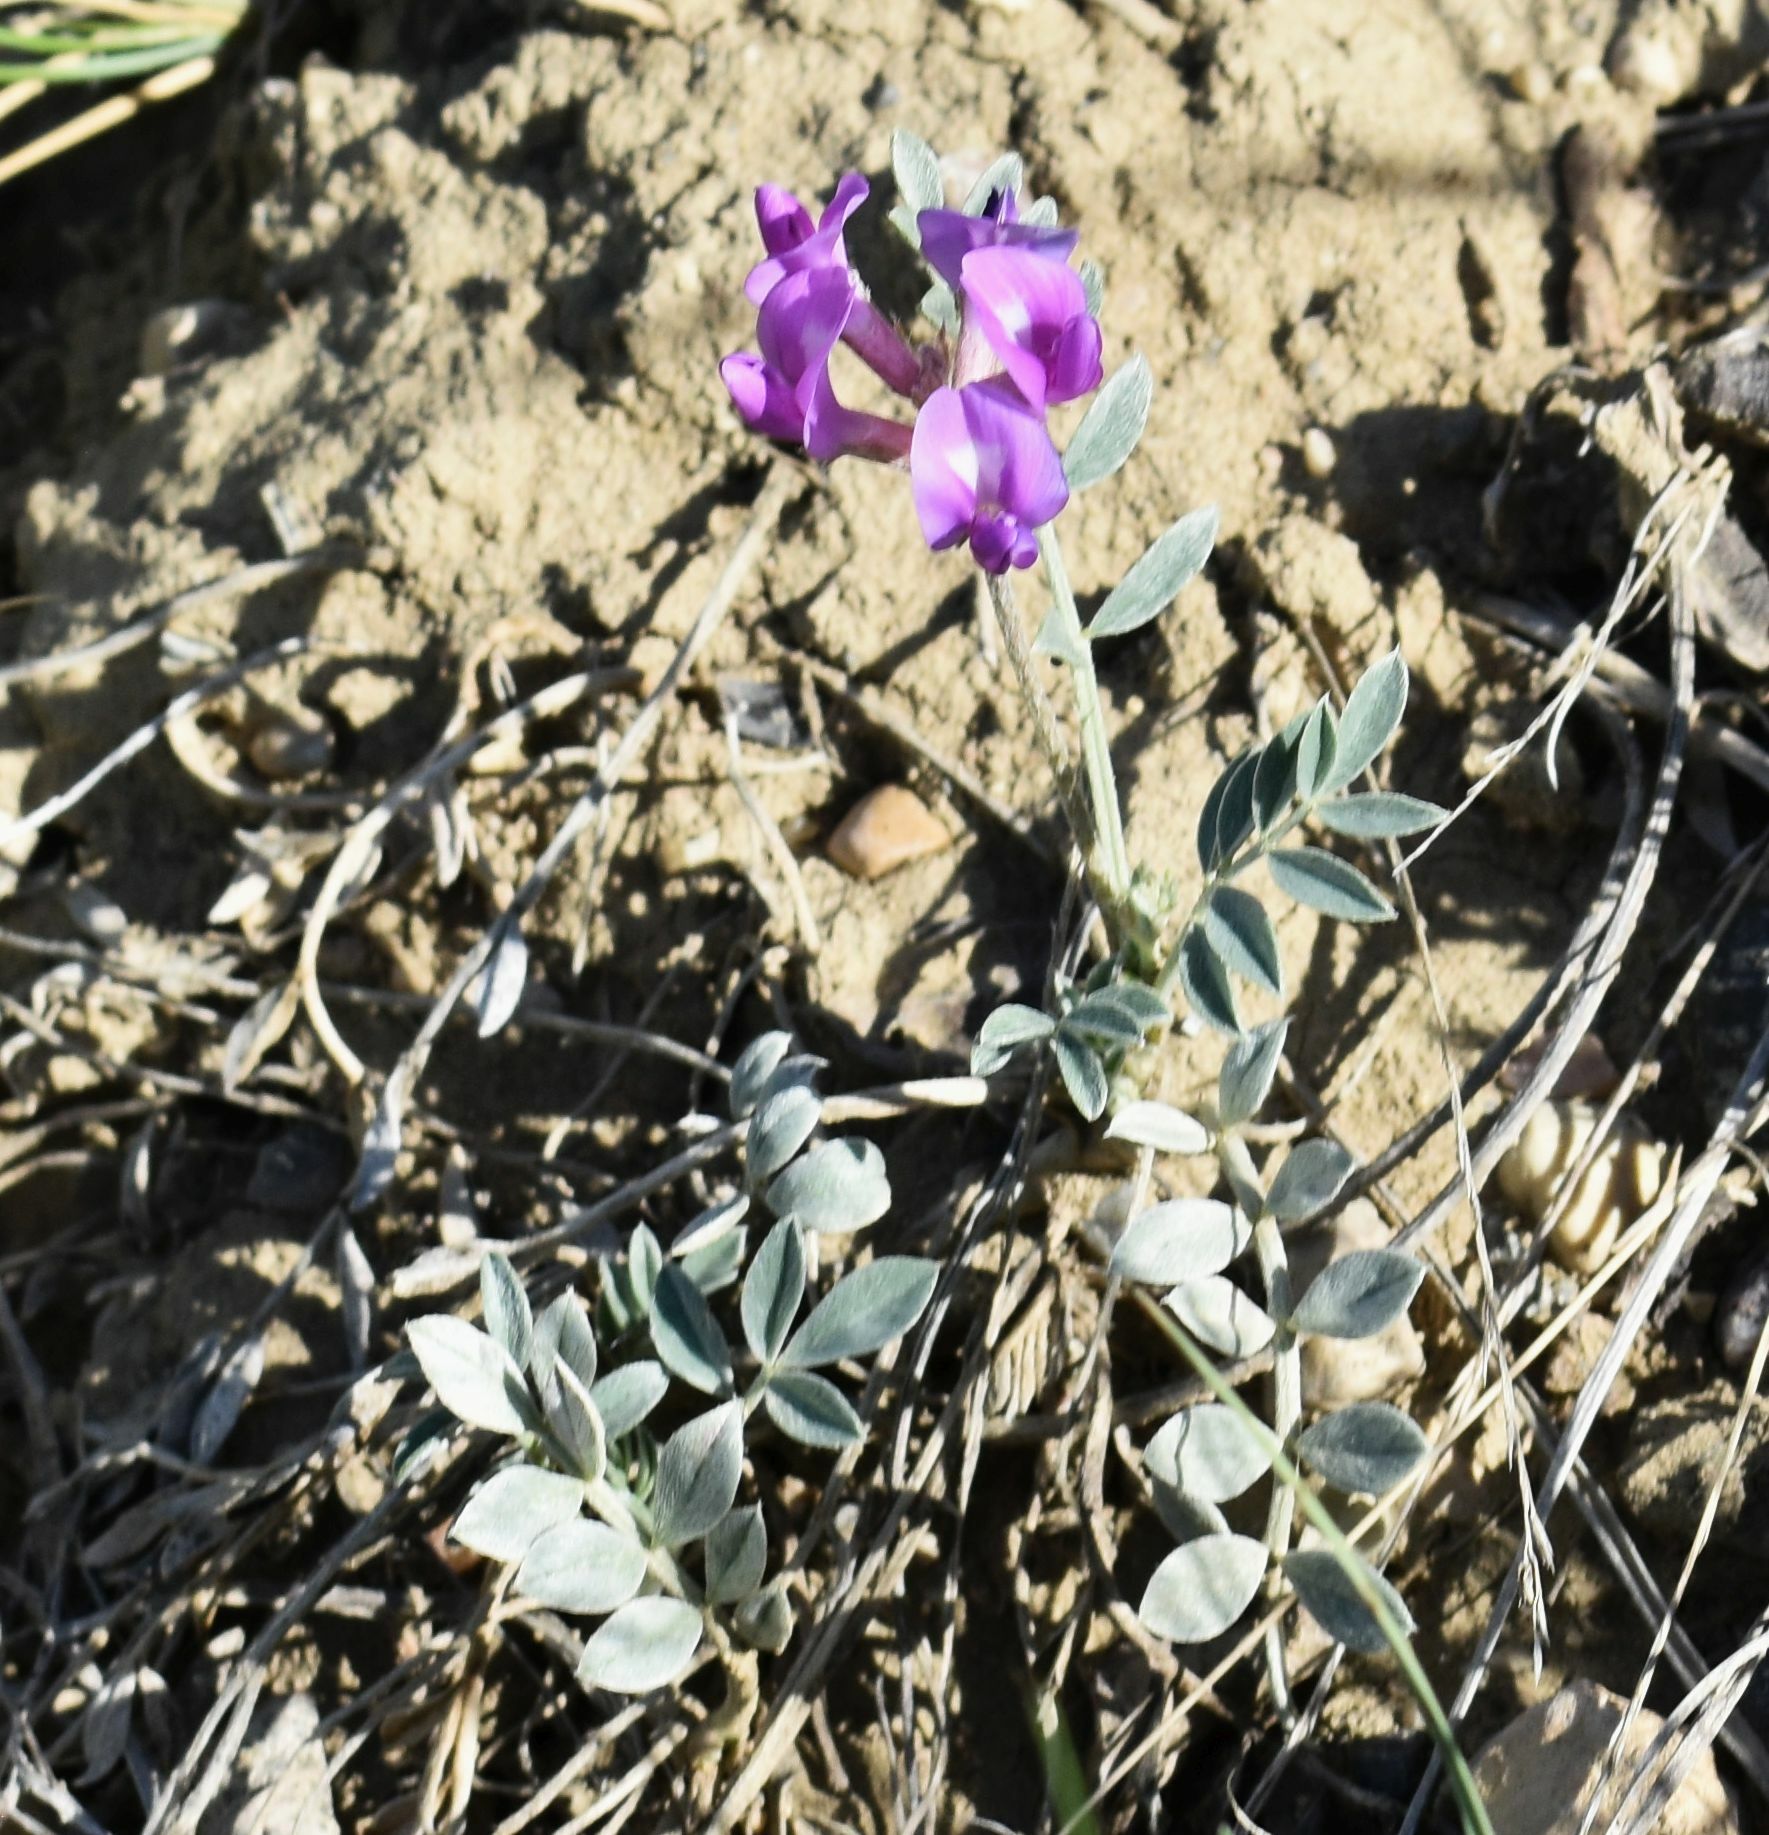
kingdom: Plantae
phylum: Tracheophyta
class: Magnoliopsida
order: Fabales
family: Fabaceae
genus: Astragalus
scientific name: Astragalus missouriensis
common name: Missouri milk-vetch
